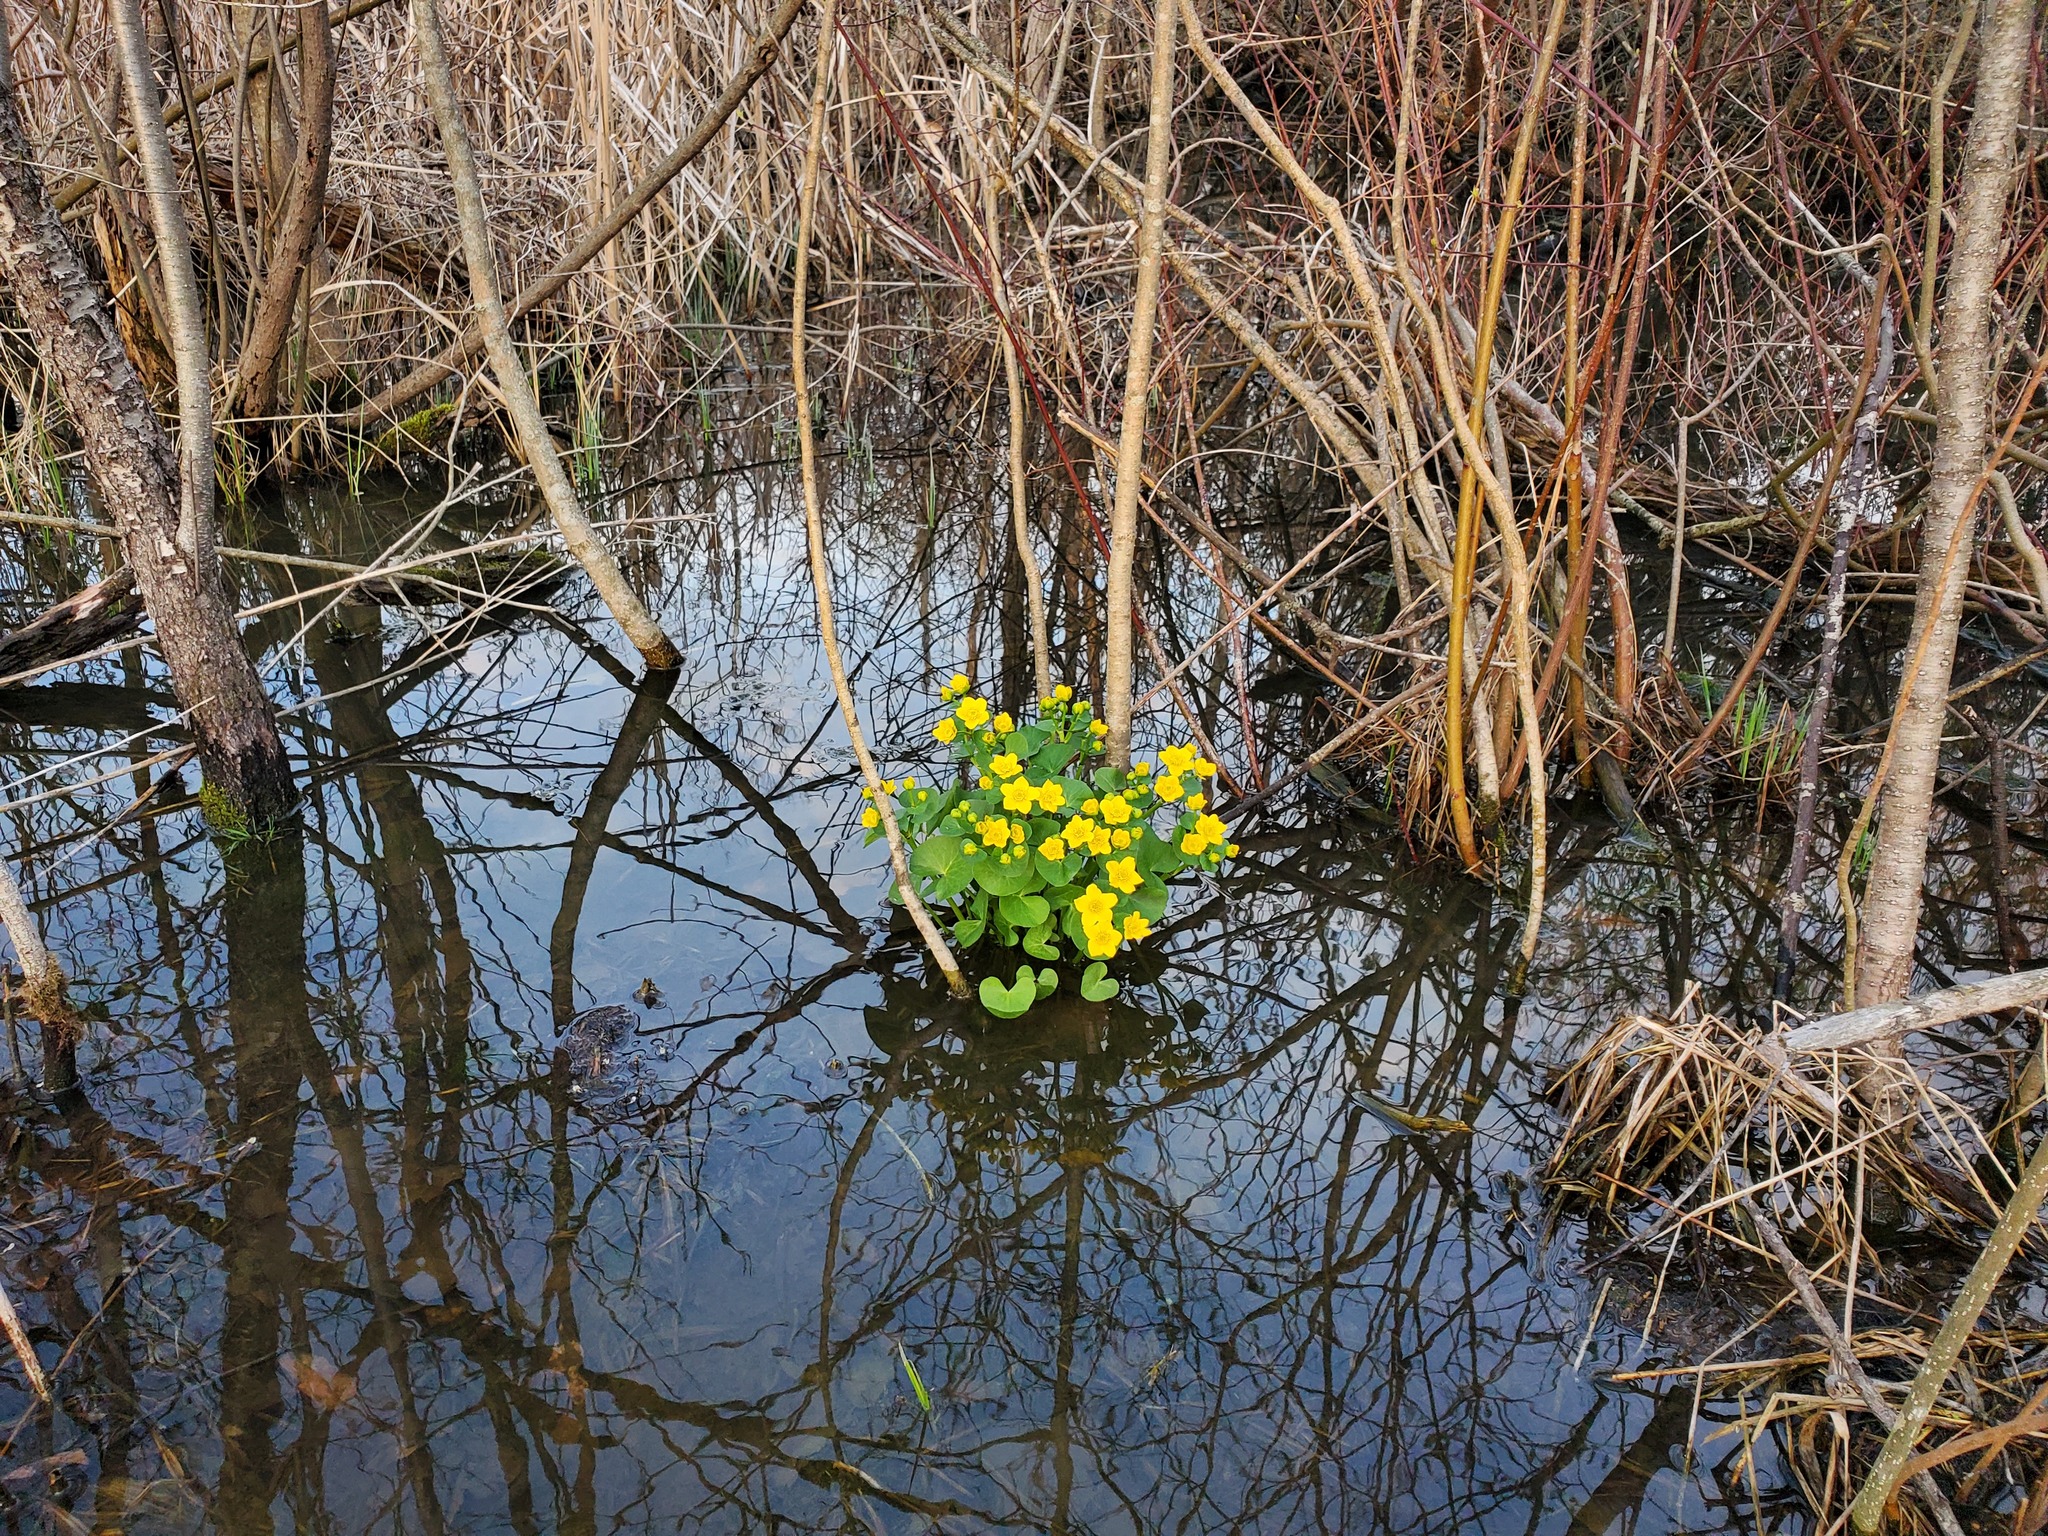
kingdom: Plantae
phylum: Tracheophyta
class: Magnoliopsida
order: Ranunculales
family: Ranunculaceae
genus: Caltha
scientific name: Caltha palustris
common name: Marsh marigold
